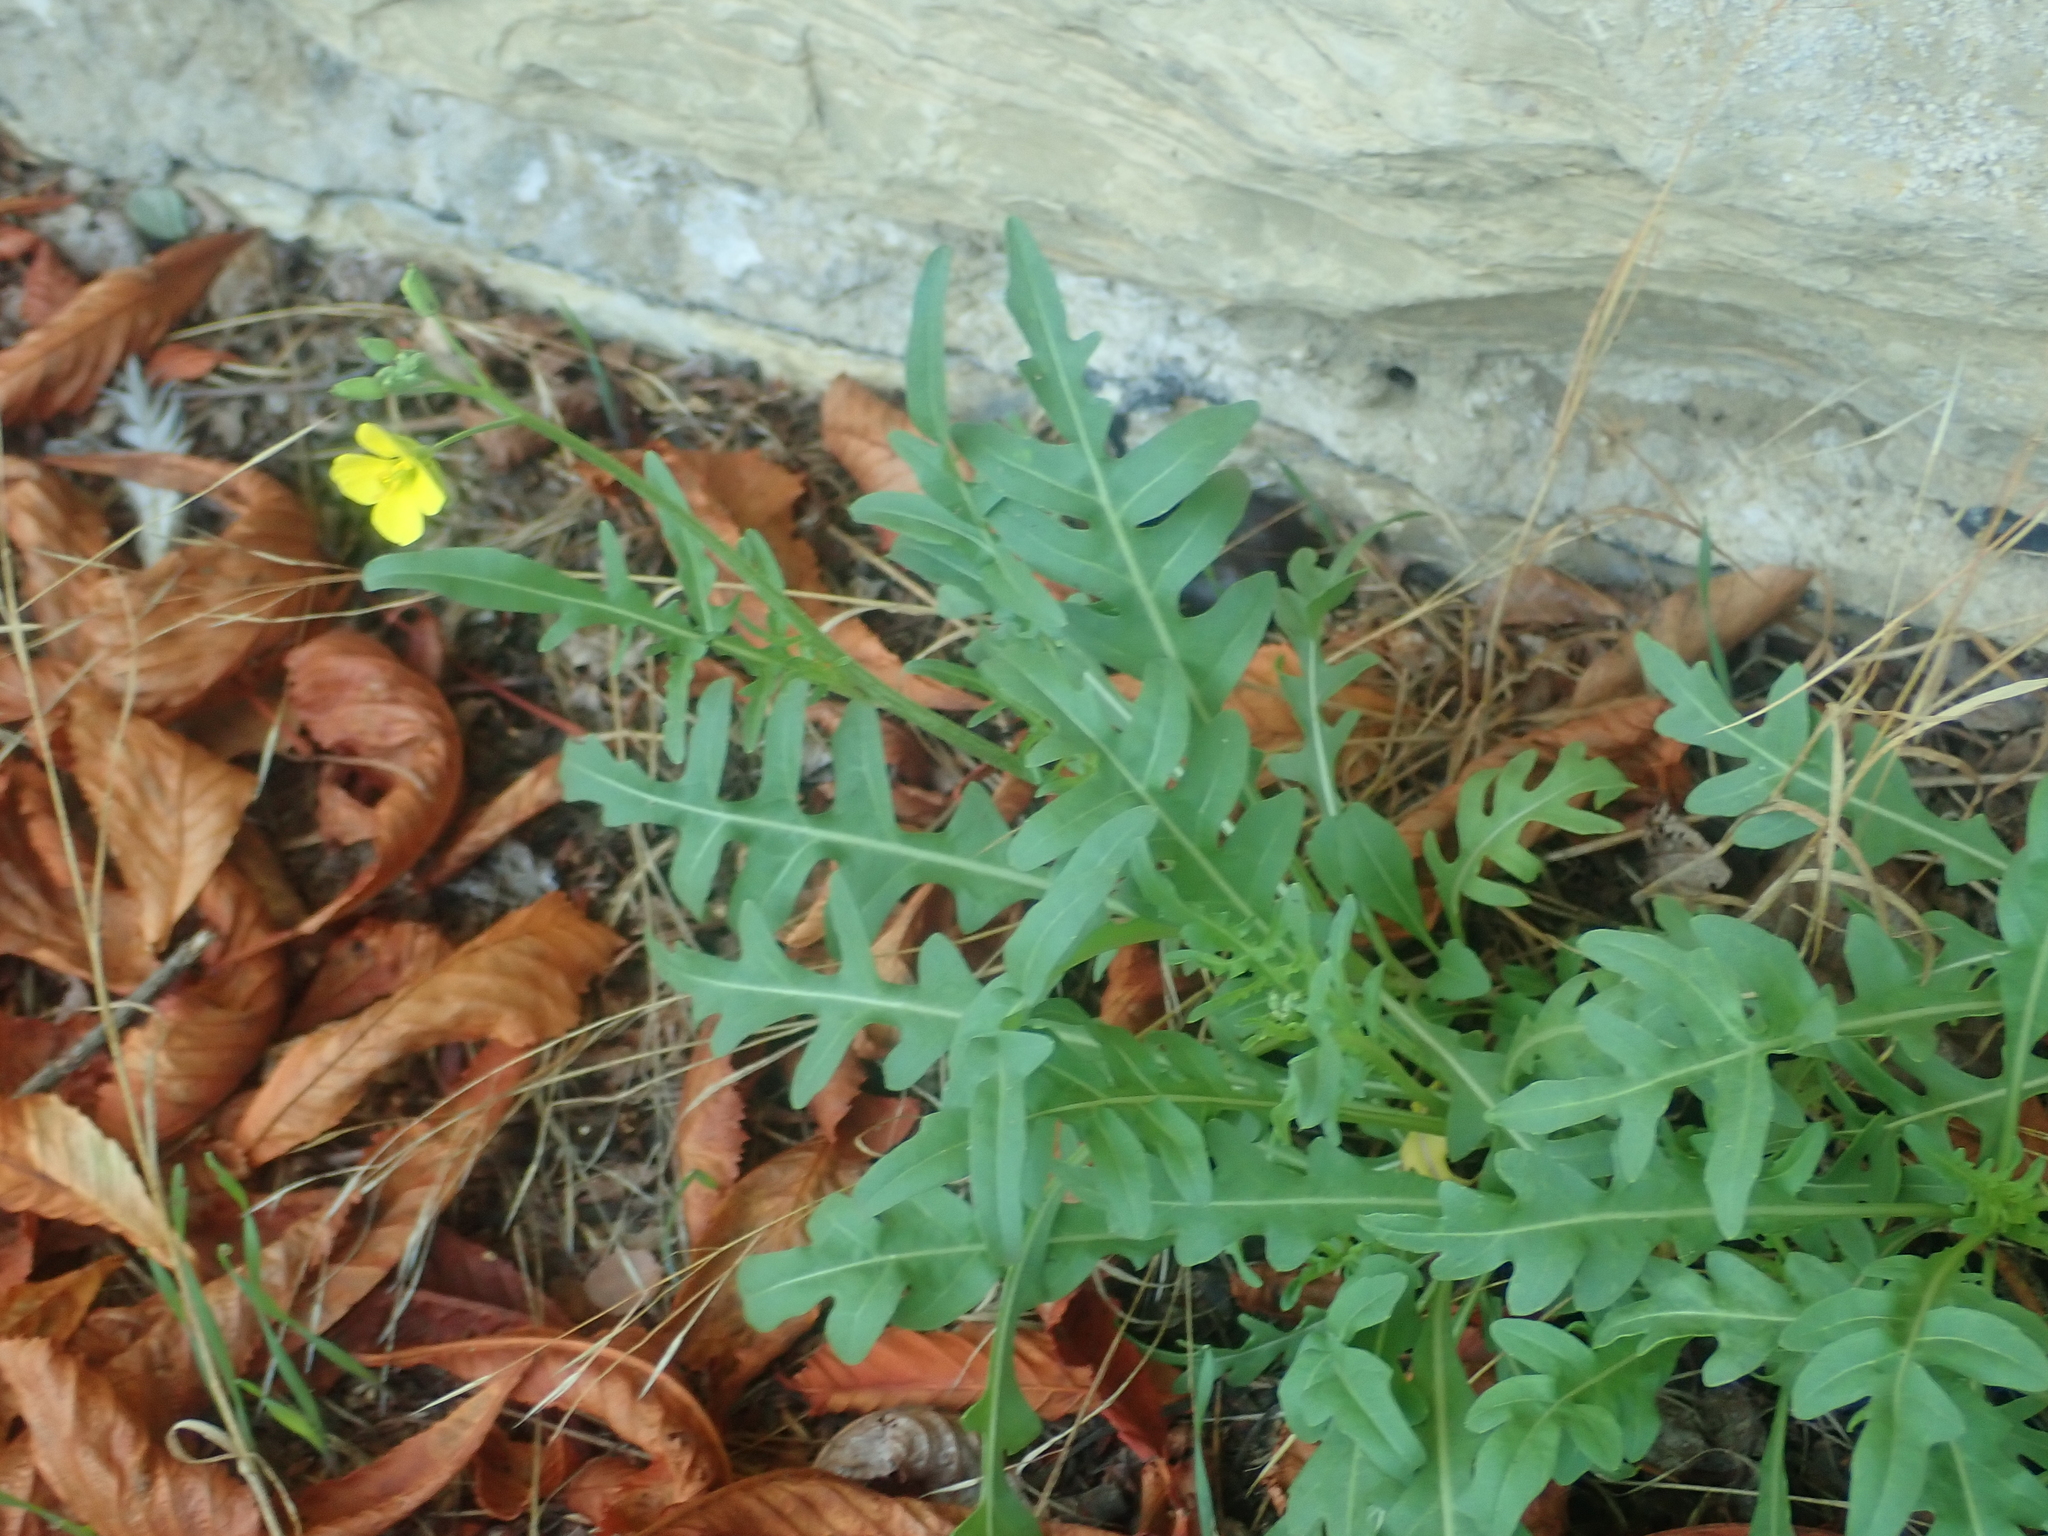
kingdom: Plantae
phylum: Tracheophyta
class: Magnoliopsida
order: Brassicales
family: Brassicaceae
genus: Diplotaxis
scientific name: Diplotaxis tenuifolia
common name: Perennial wall-rocket
